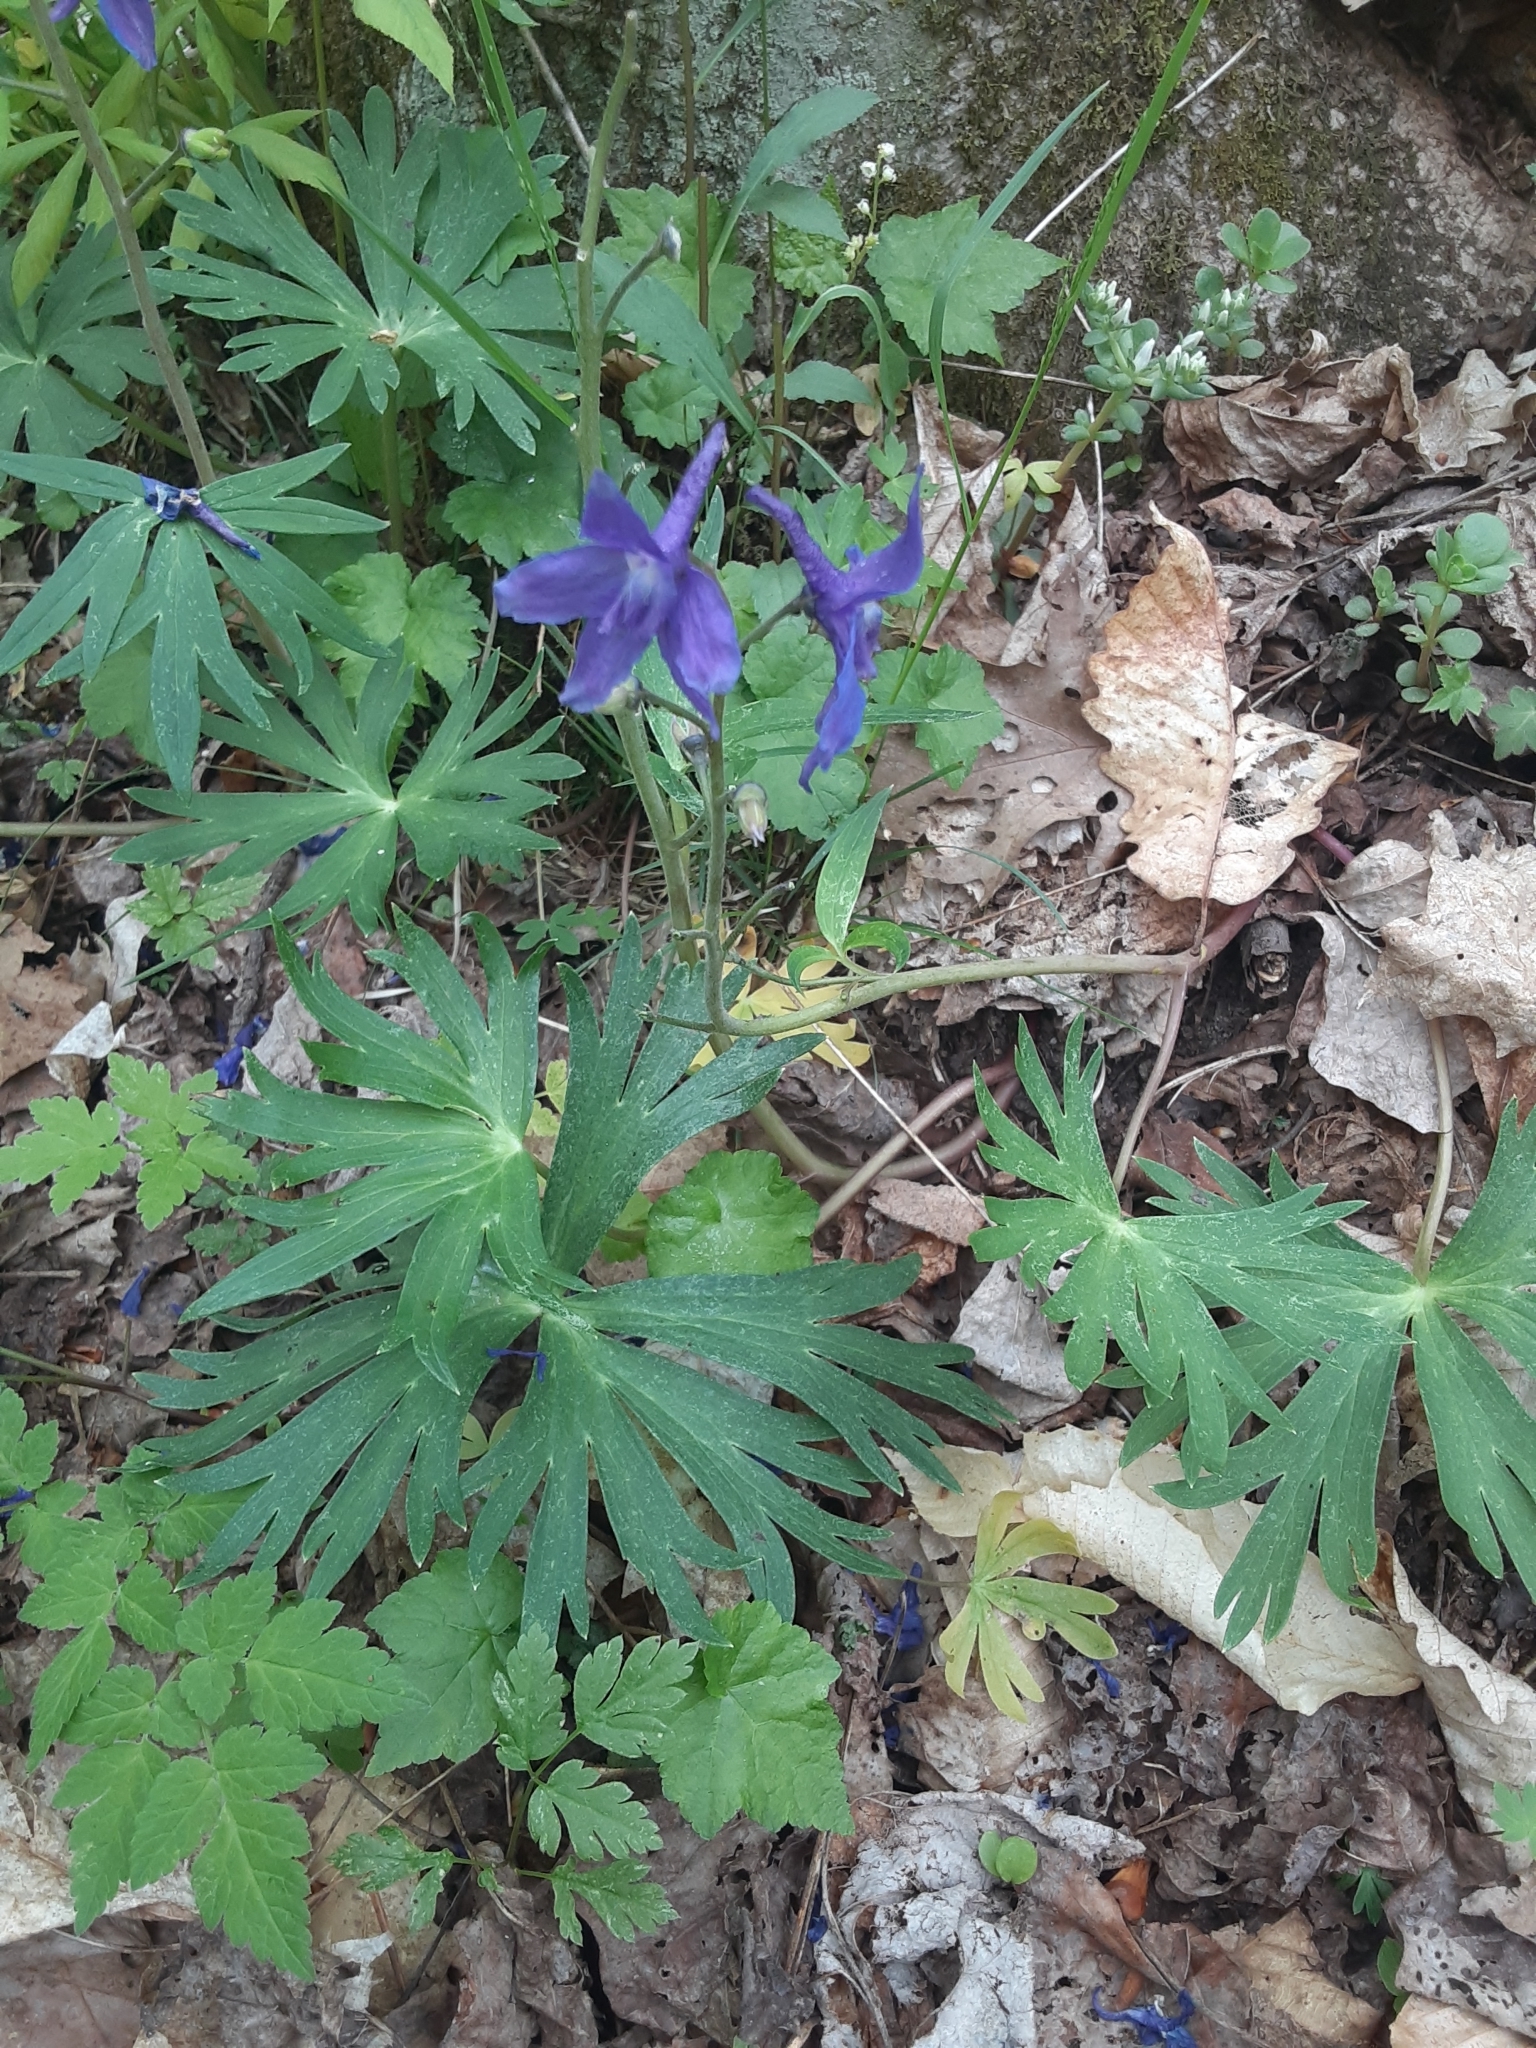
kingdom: Plantae
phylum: Tracheophyta
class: Magnoliopsida
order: Ranunculales
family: Ranunculaceae
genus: Delphinium
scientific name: Delphinium tricorne
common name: Dwarf larkspur
